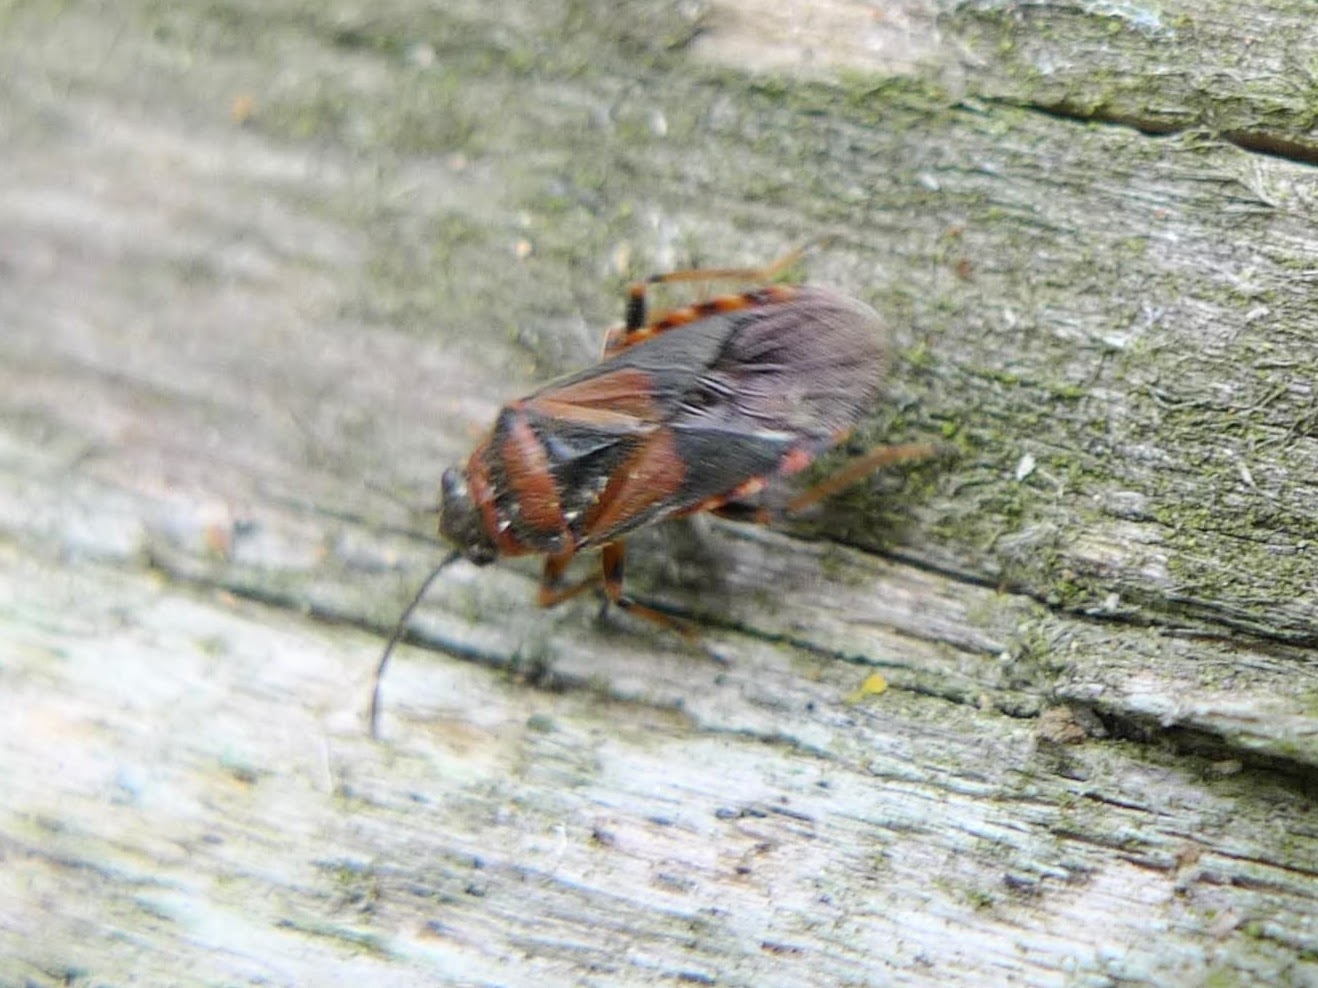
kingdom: Animalia
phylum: Arthropoda
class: Insecta
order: Hemiptera
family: Lygaeidae
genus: Arocatus
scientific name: Arocatus melanocephalus
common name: Lygaeid bug
